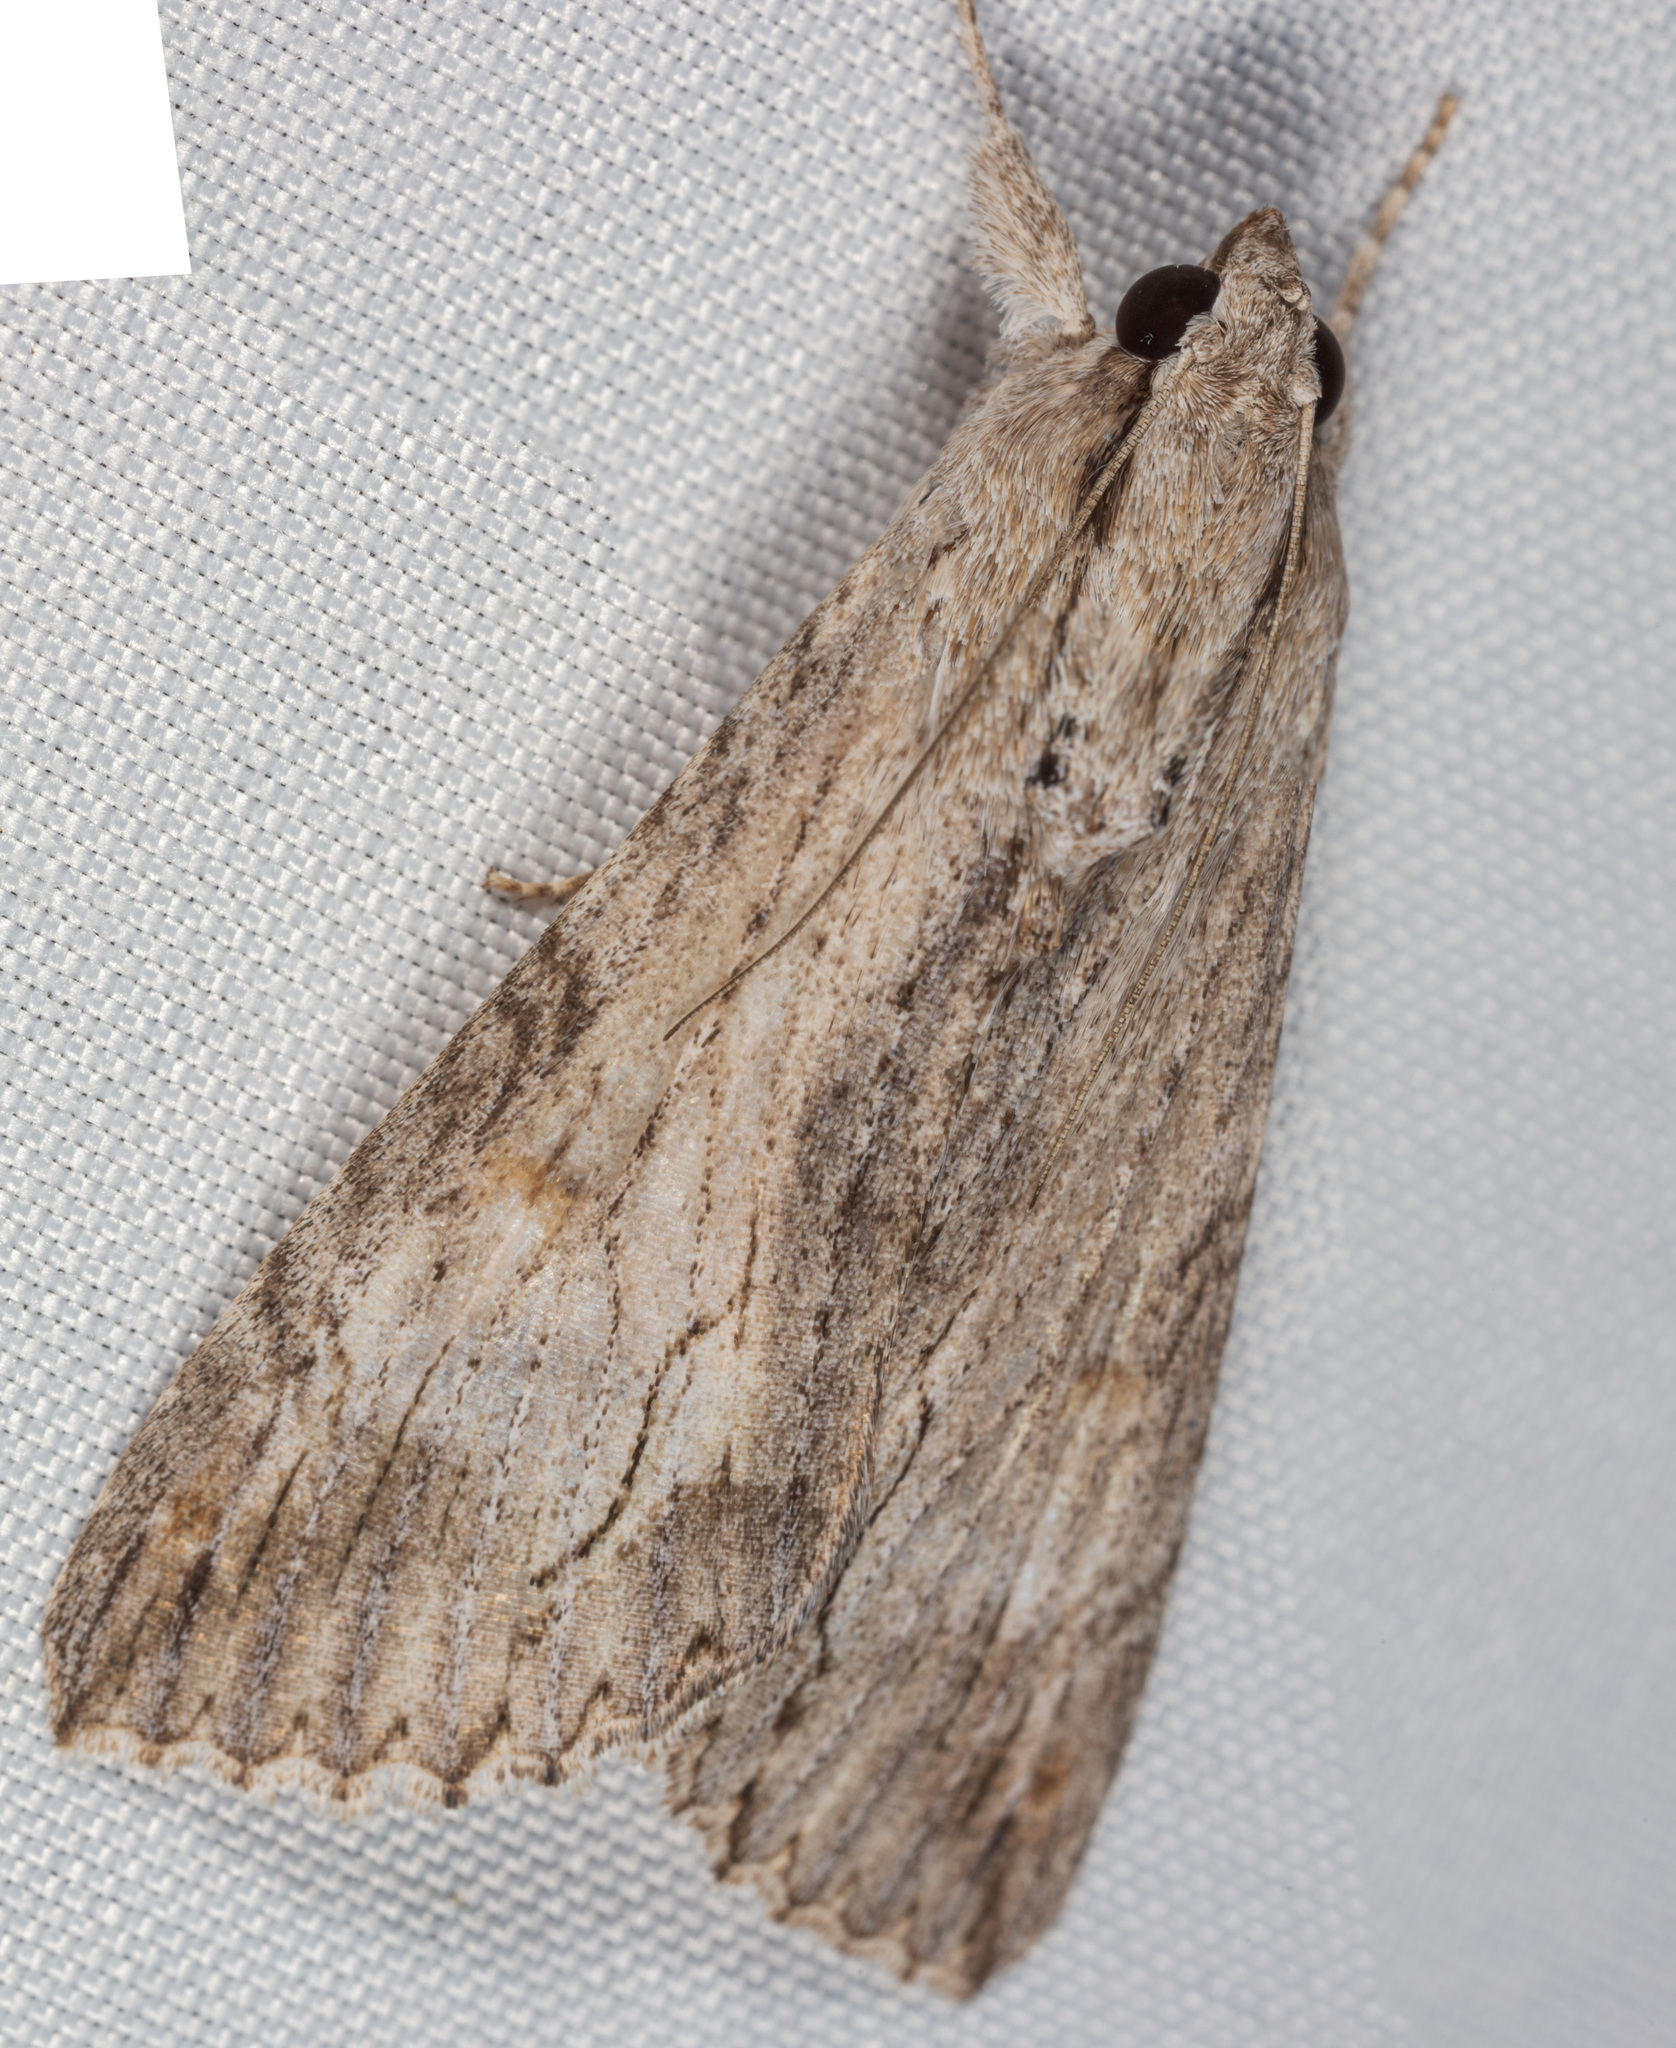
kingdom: Animalia
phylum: Arthropoda
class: Insecta
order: Lepidoptera
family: Erebidae
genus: Melipotis
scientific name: Melipotis acontioides
